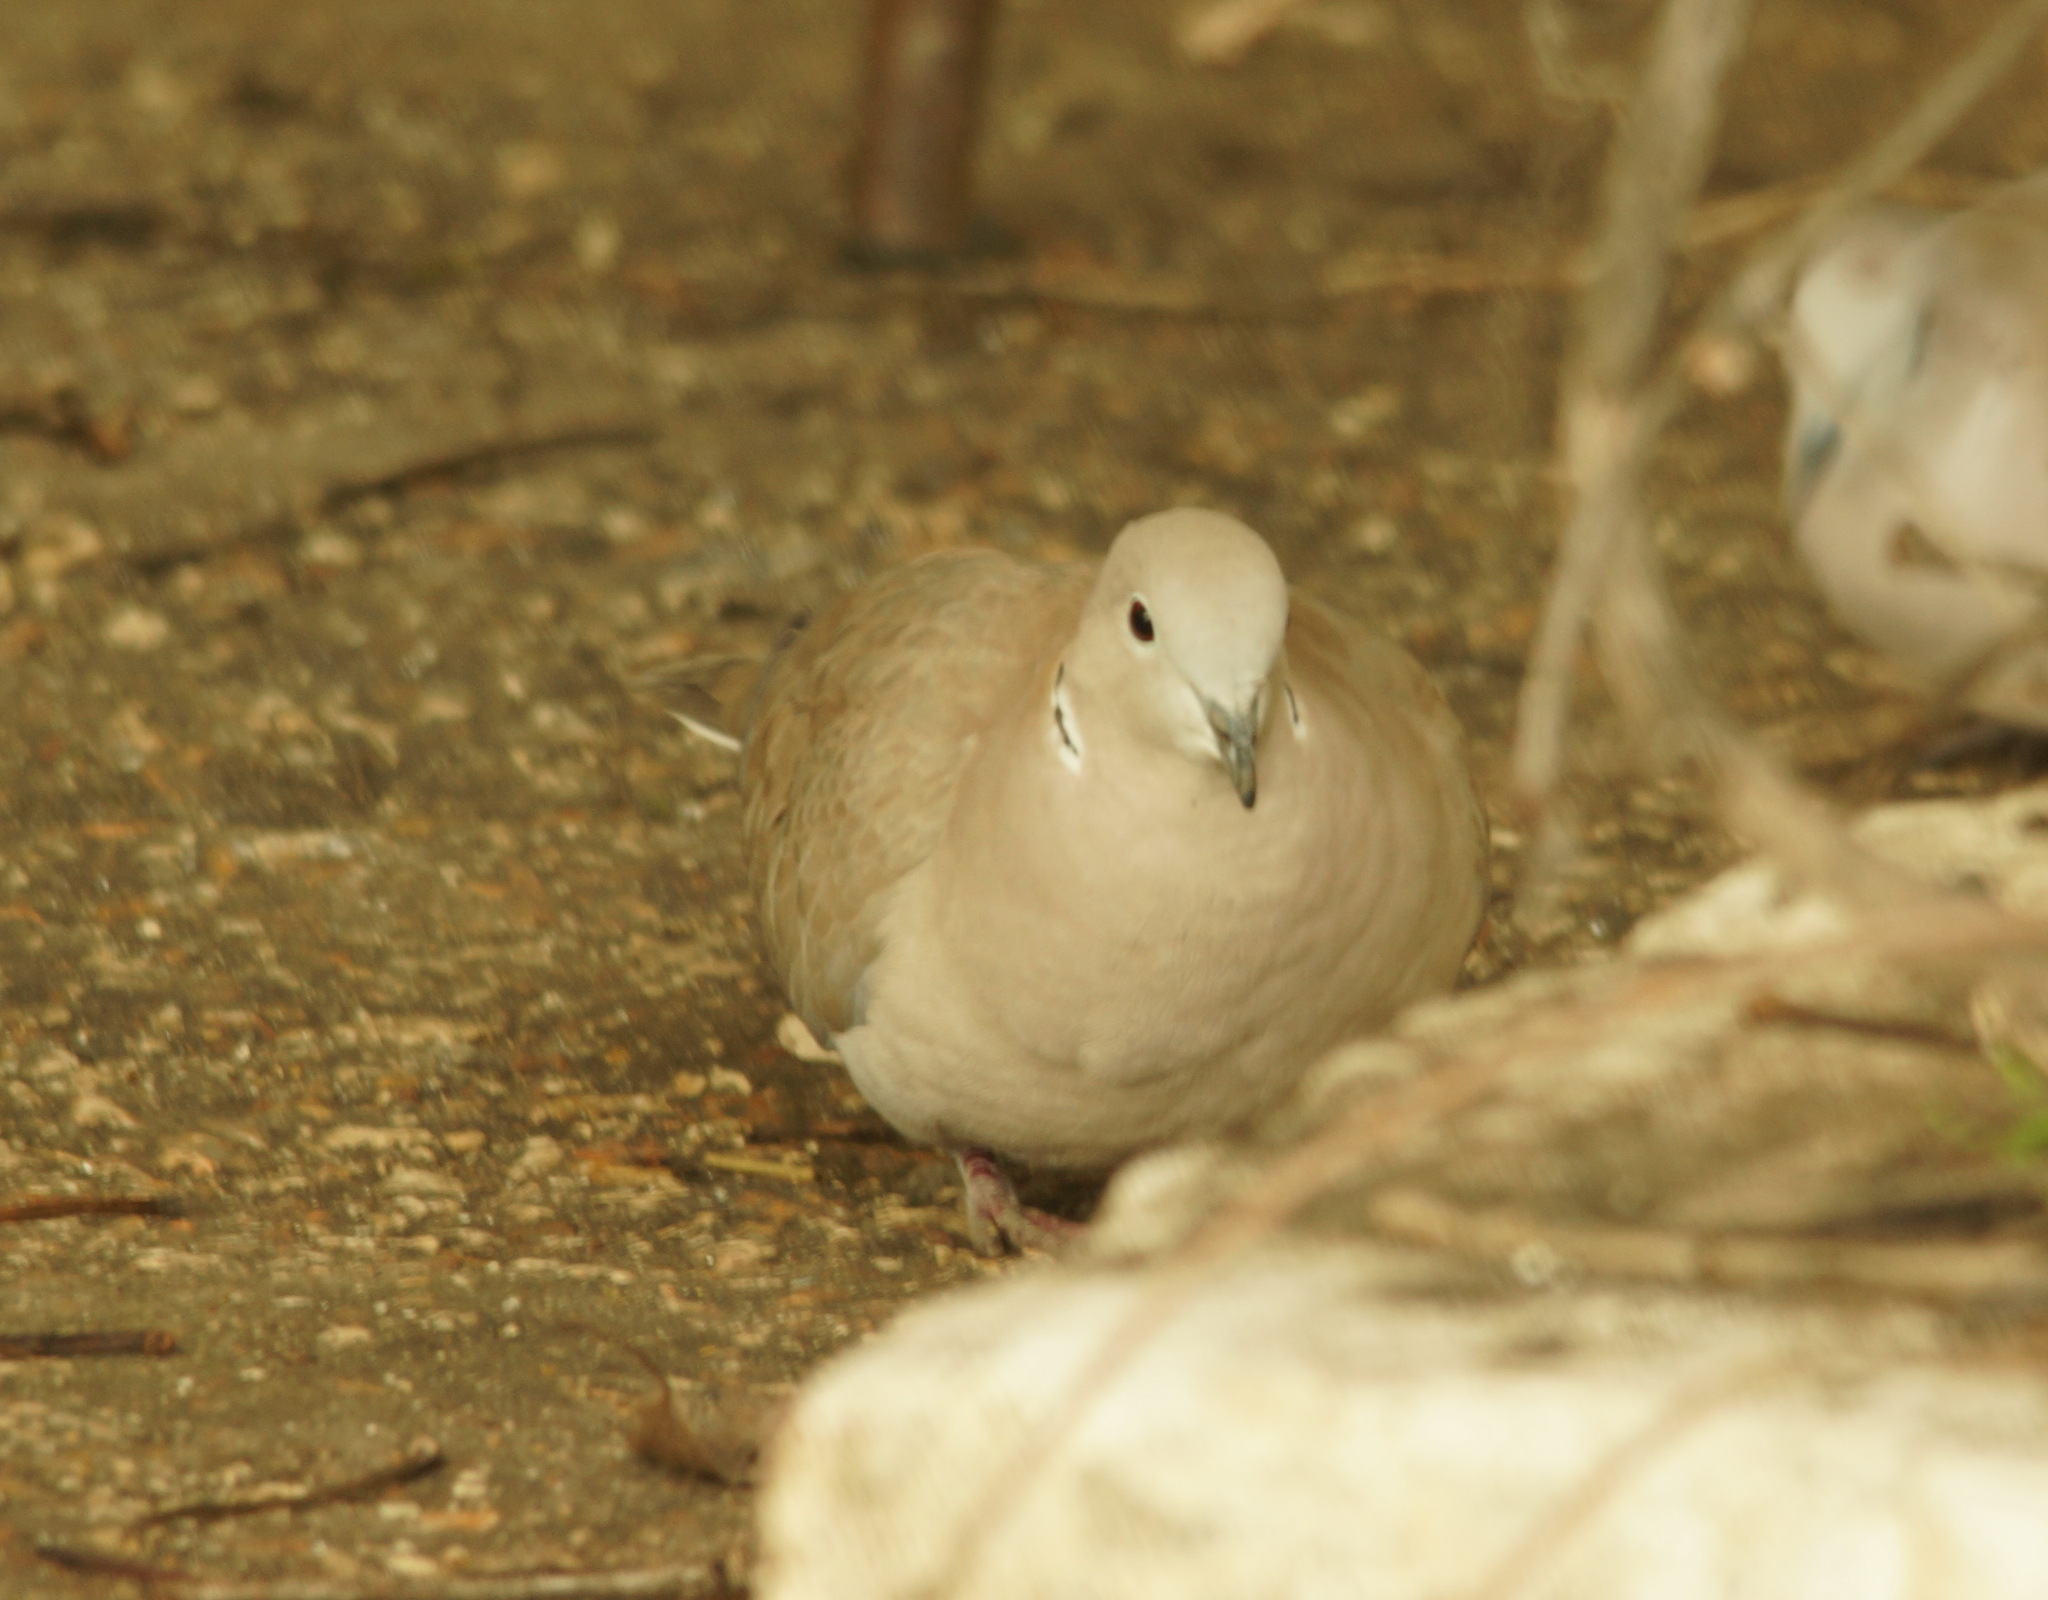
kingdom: Animalia
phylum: Chordata
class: Aves
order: Columbiformes
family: Columbidae
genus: Streptopelia
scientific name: Streptopelia decaocto
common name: Eurasian collared dove
